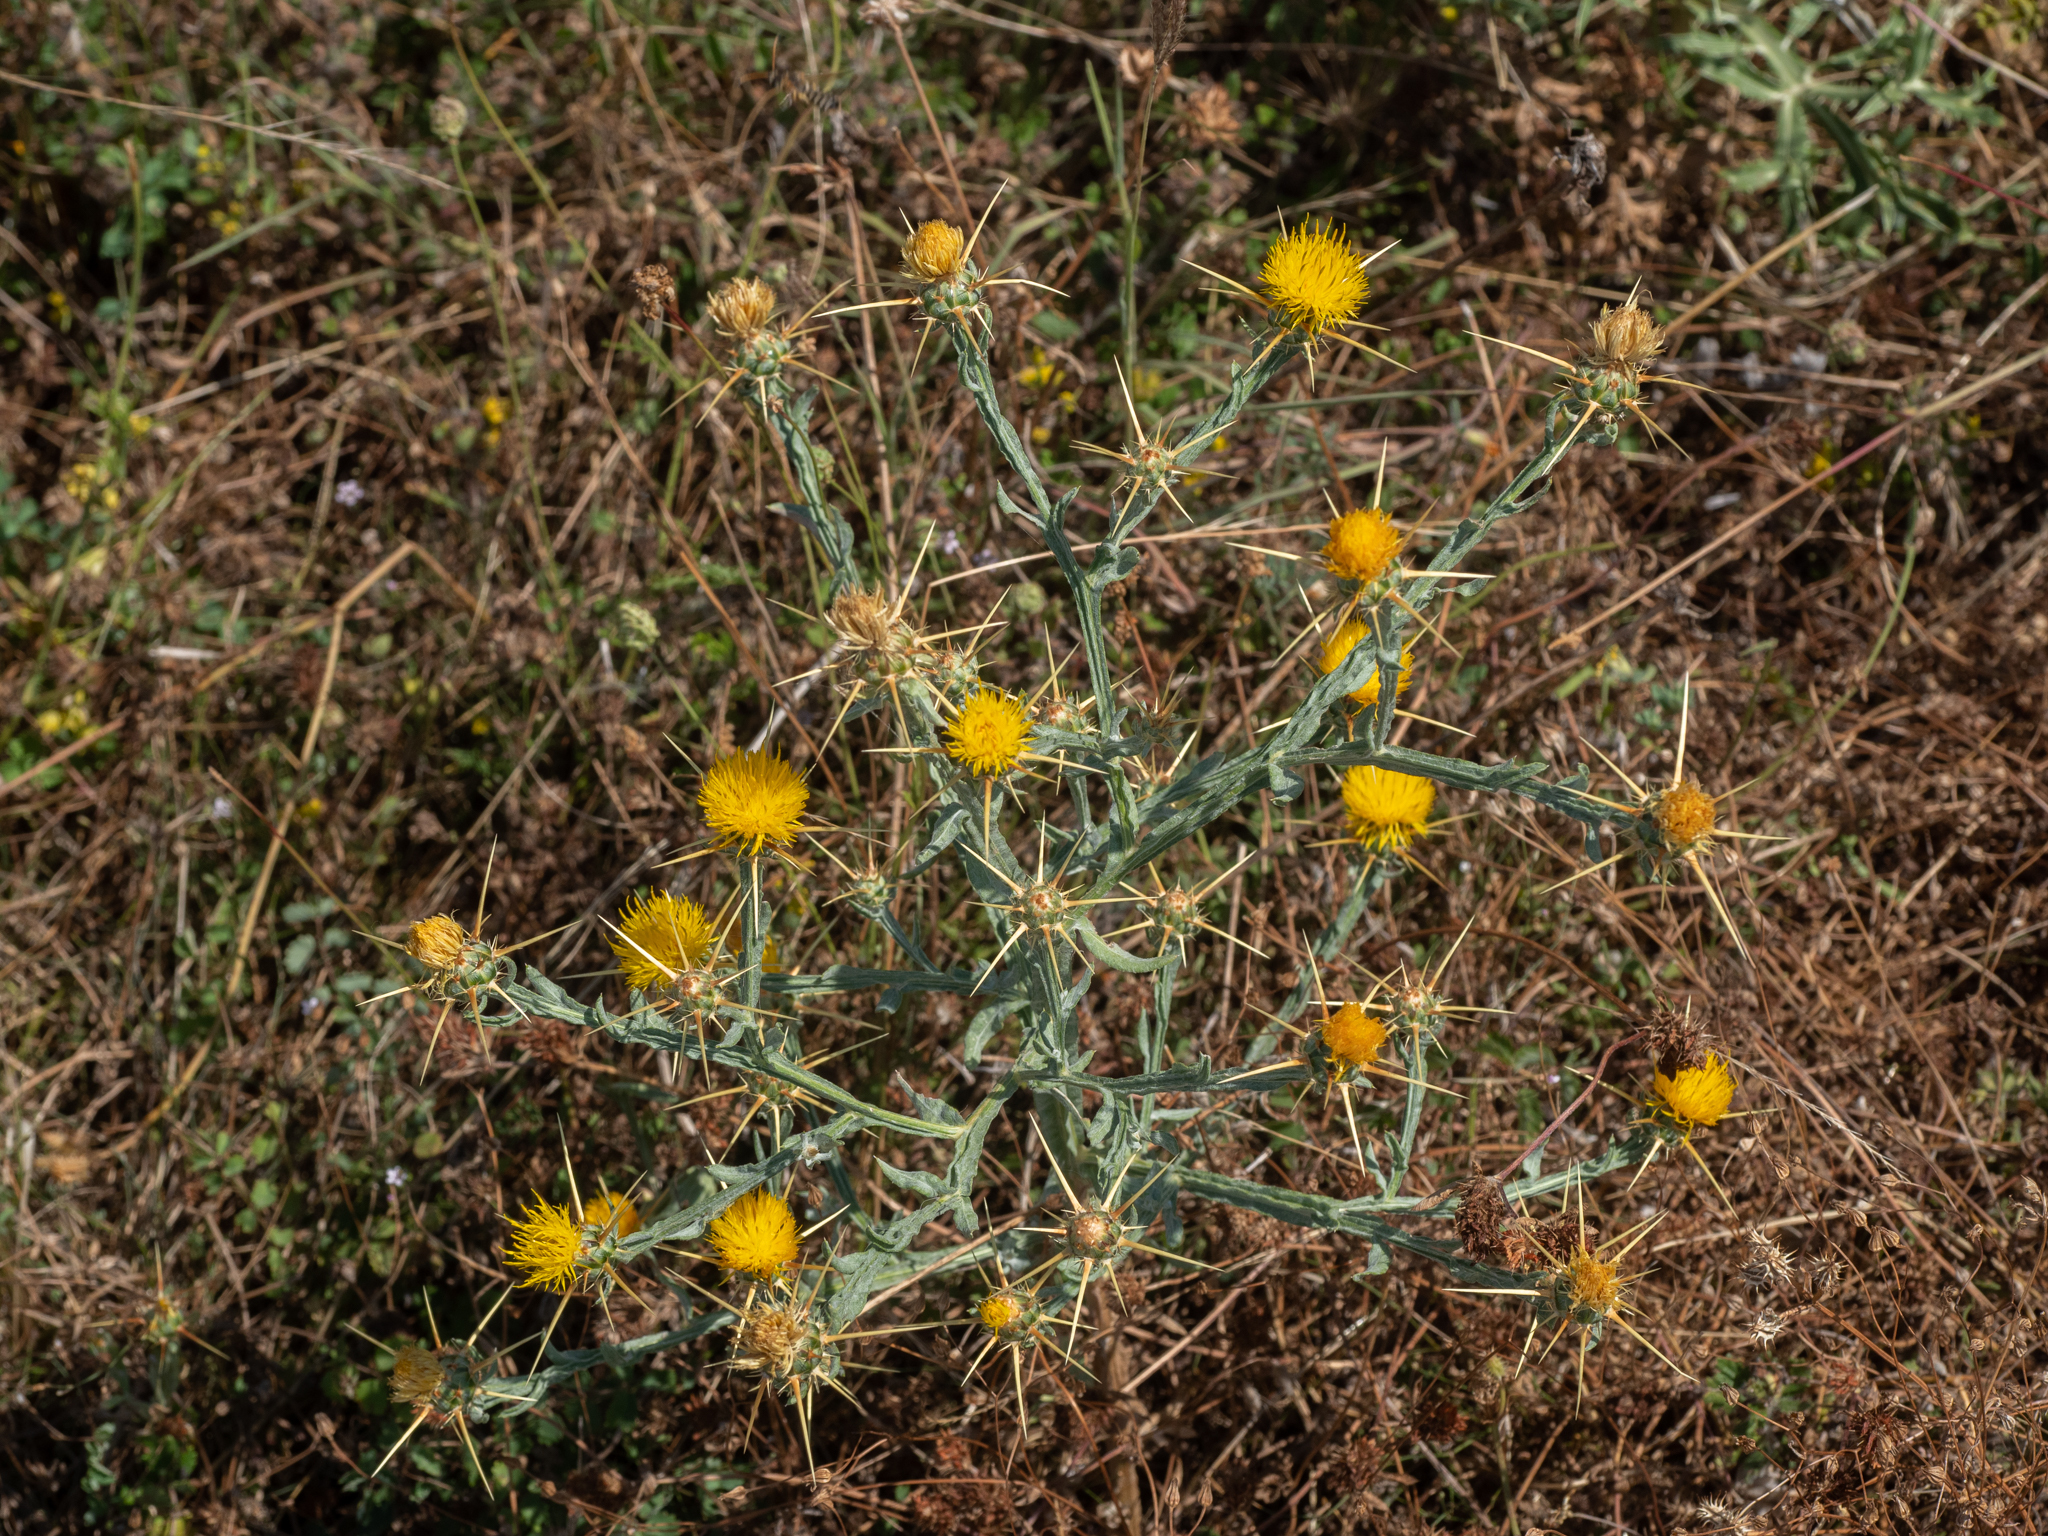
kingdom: Plantae
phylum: Tracheophyta
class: Magnoliopsida
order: Asterales
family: Asteraceae
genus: Centaurea
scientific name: Centaurea solstitialis
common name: Yellow star-thistle
